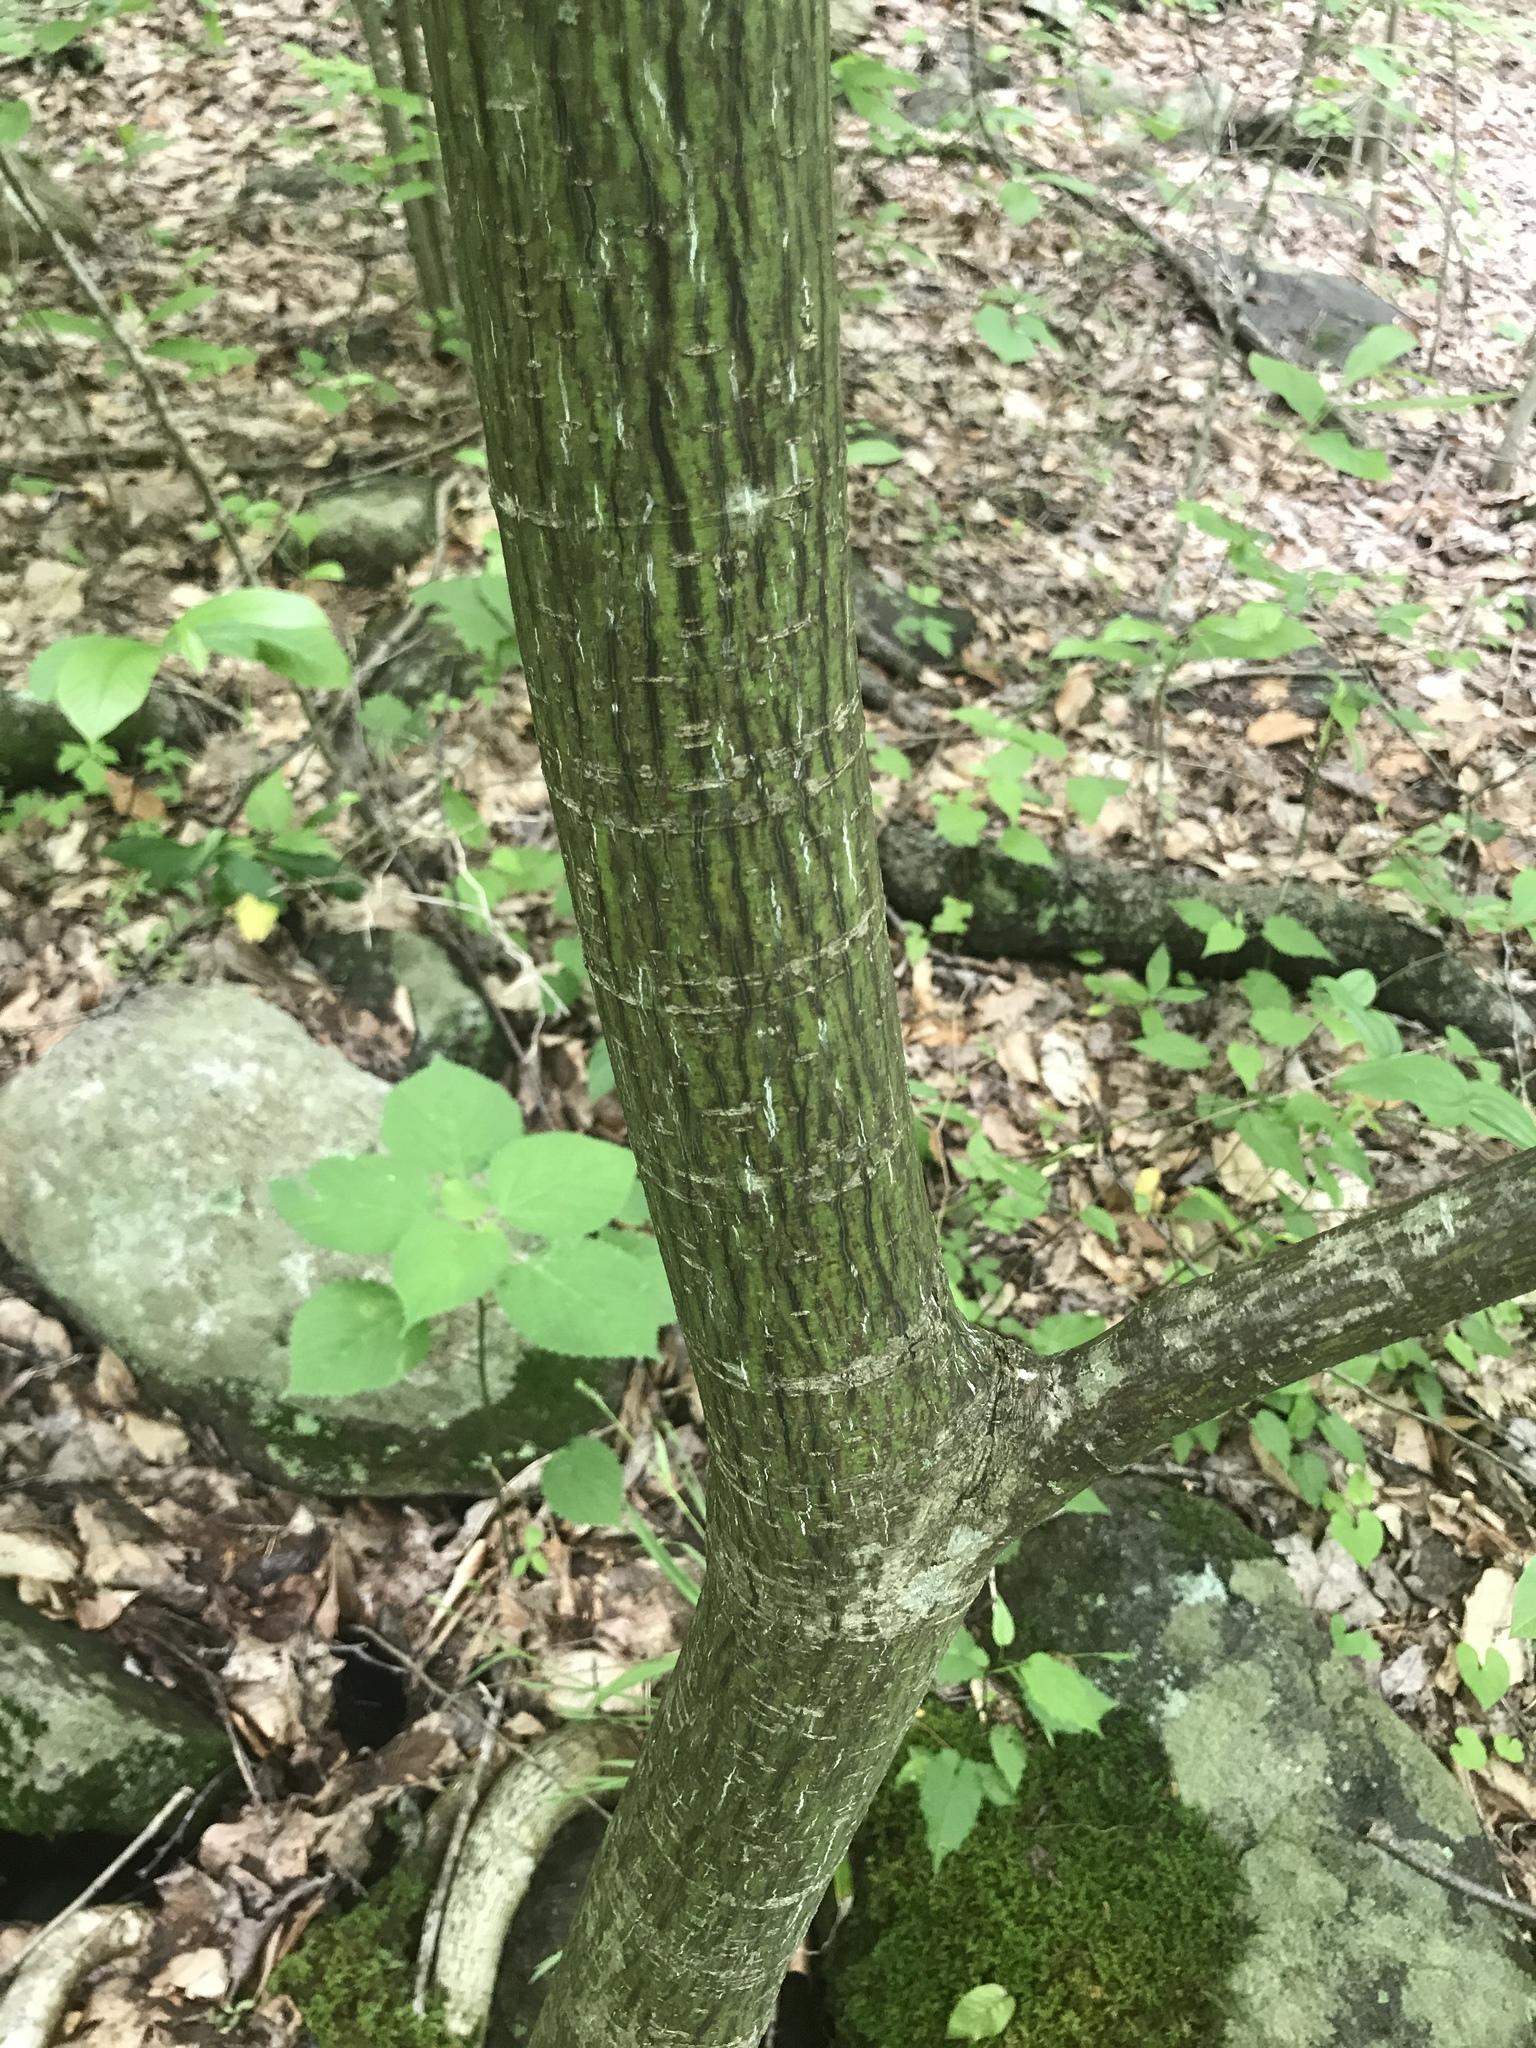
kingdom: Plantae
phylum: Tracheophyta
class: Magnoliopsida
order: Sapindales
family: Sapindaceae
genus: Acer
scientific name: Acer pensylvanicum
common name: Moosewood
